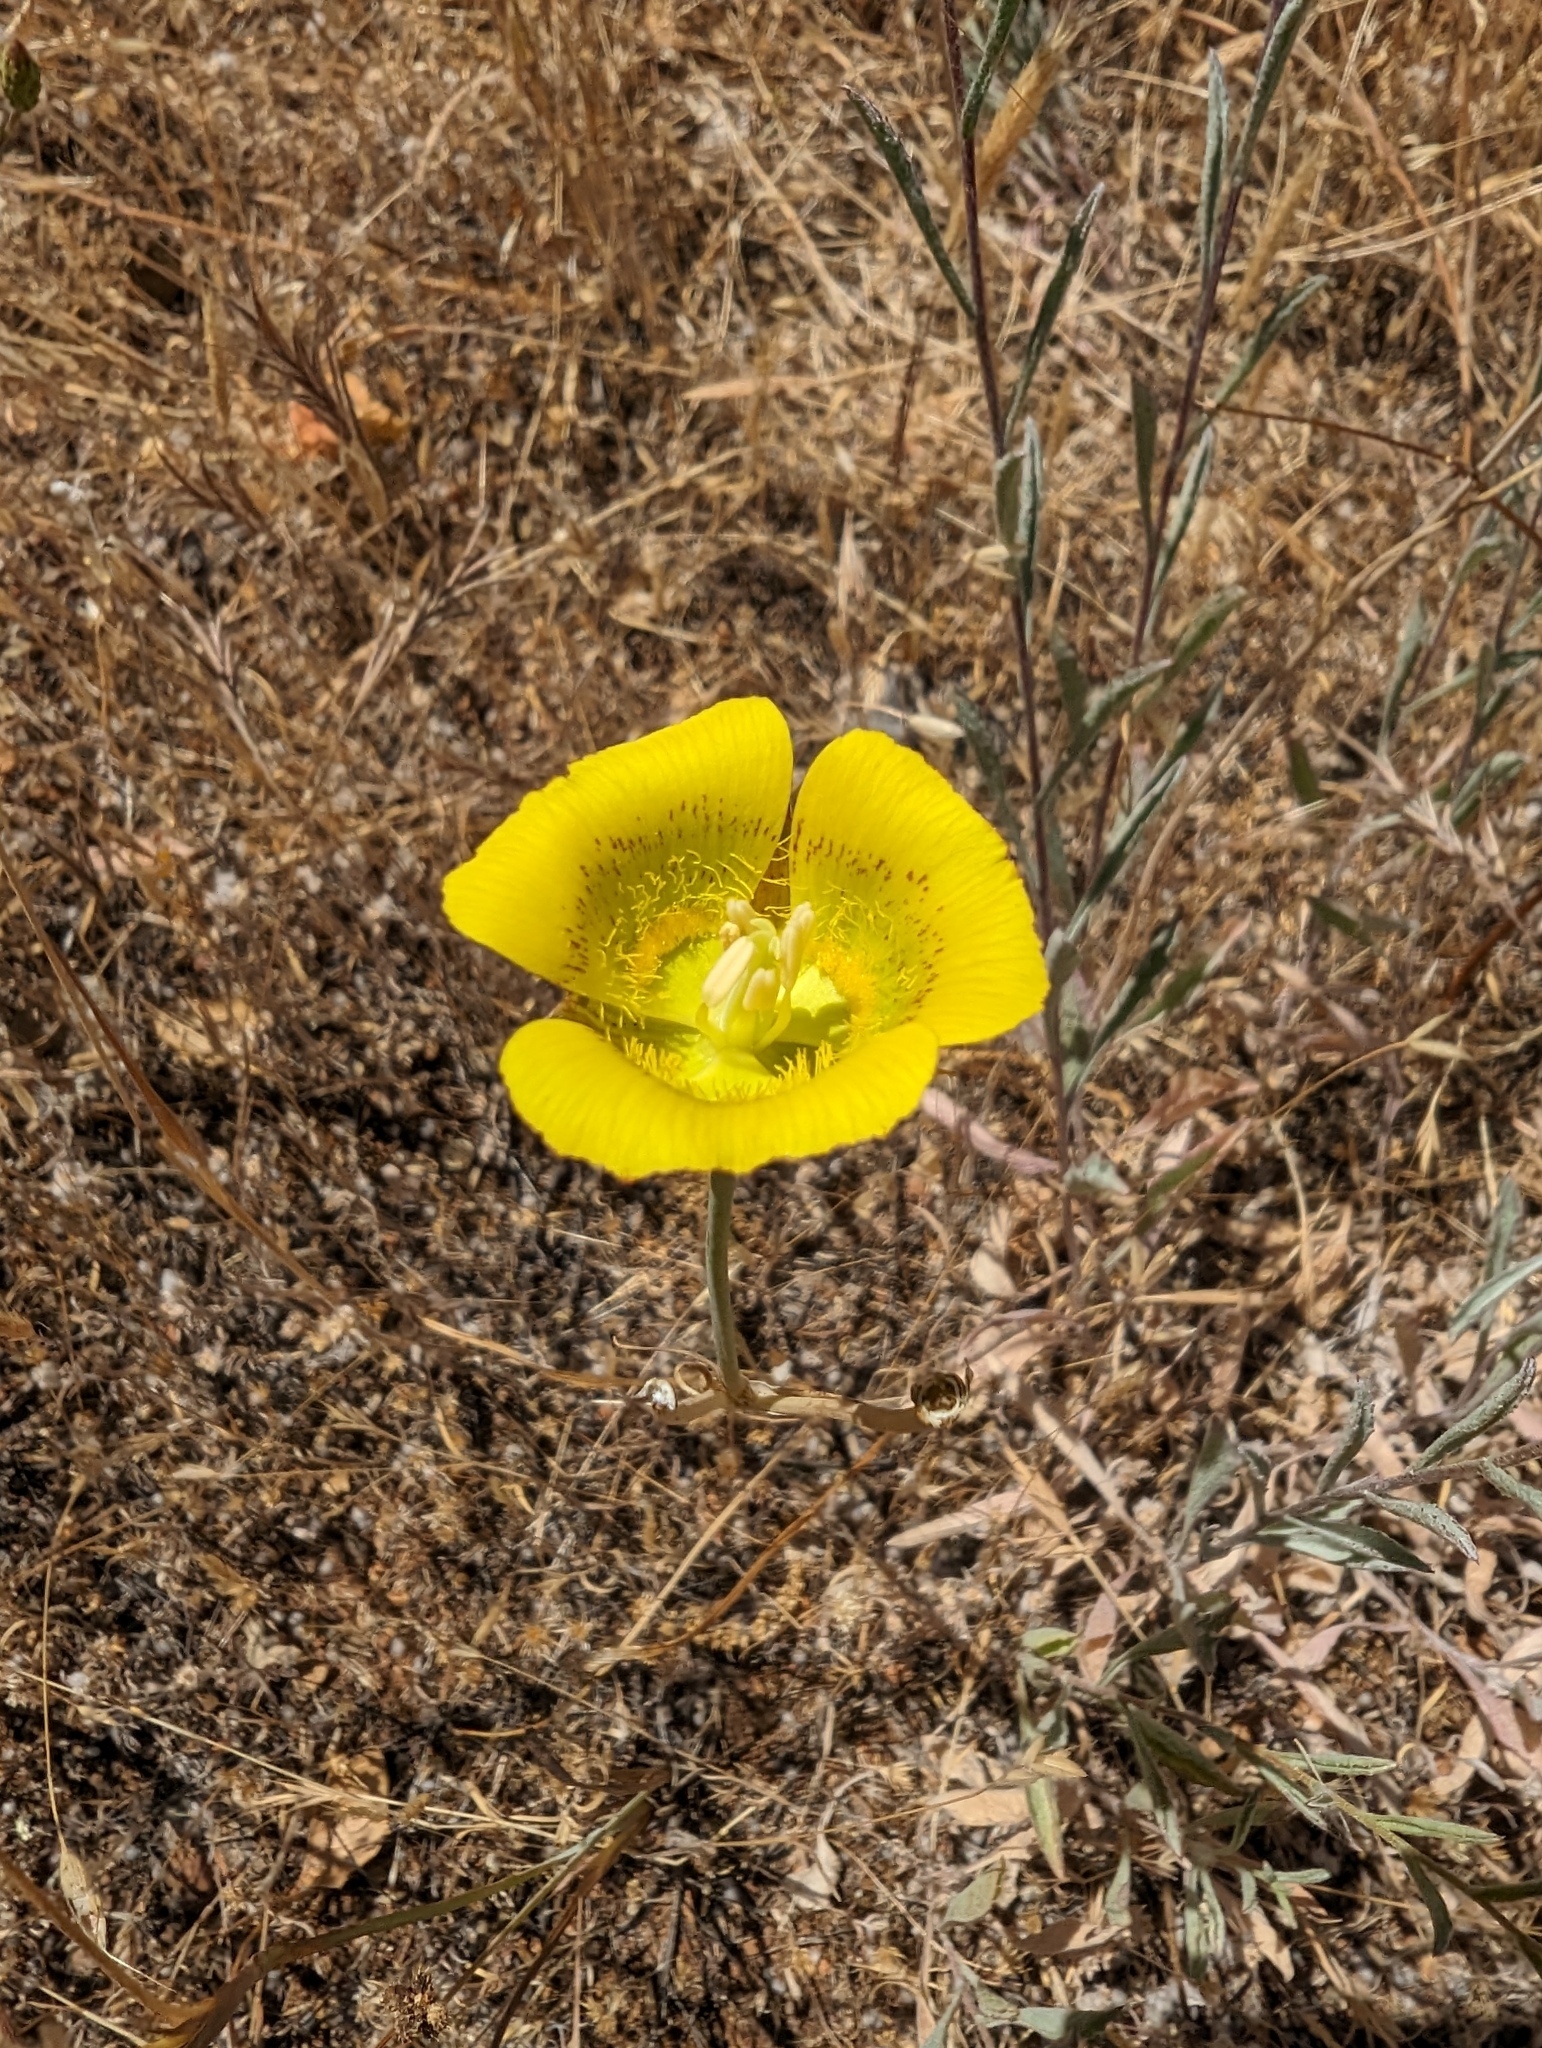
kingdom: Plantae
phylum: Tracheophyta
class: Liliopsida
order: Liliales
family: Liliaceae
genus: Calochortus
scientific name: Calochortus luteus
